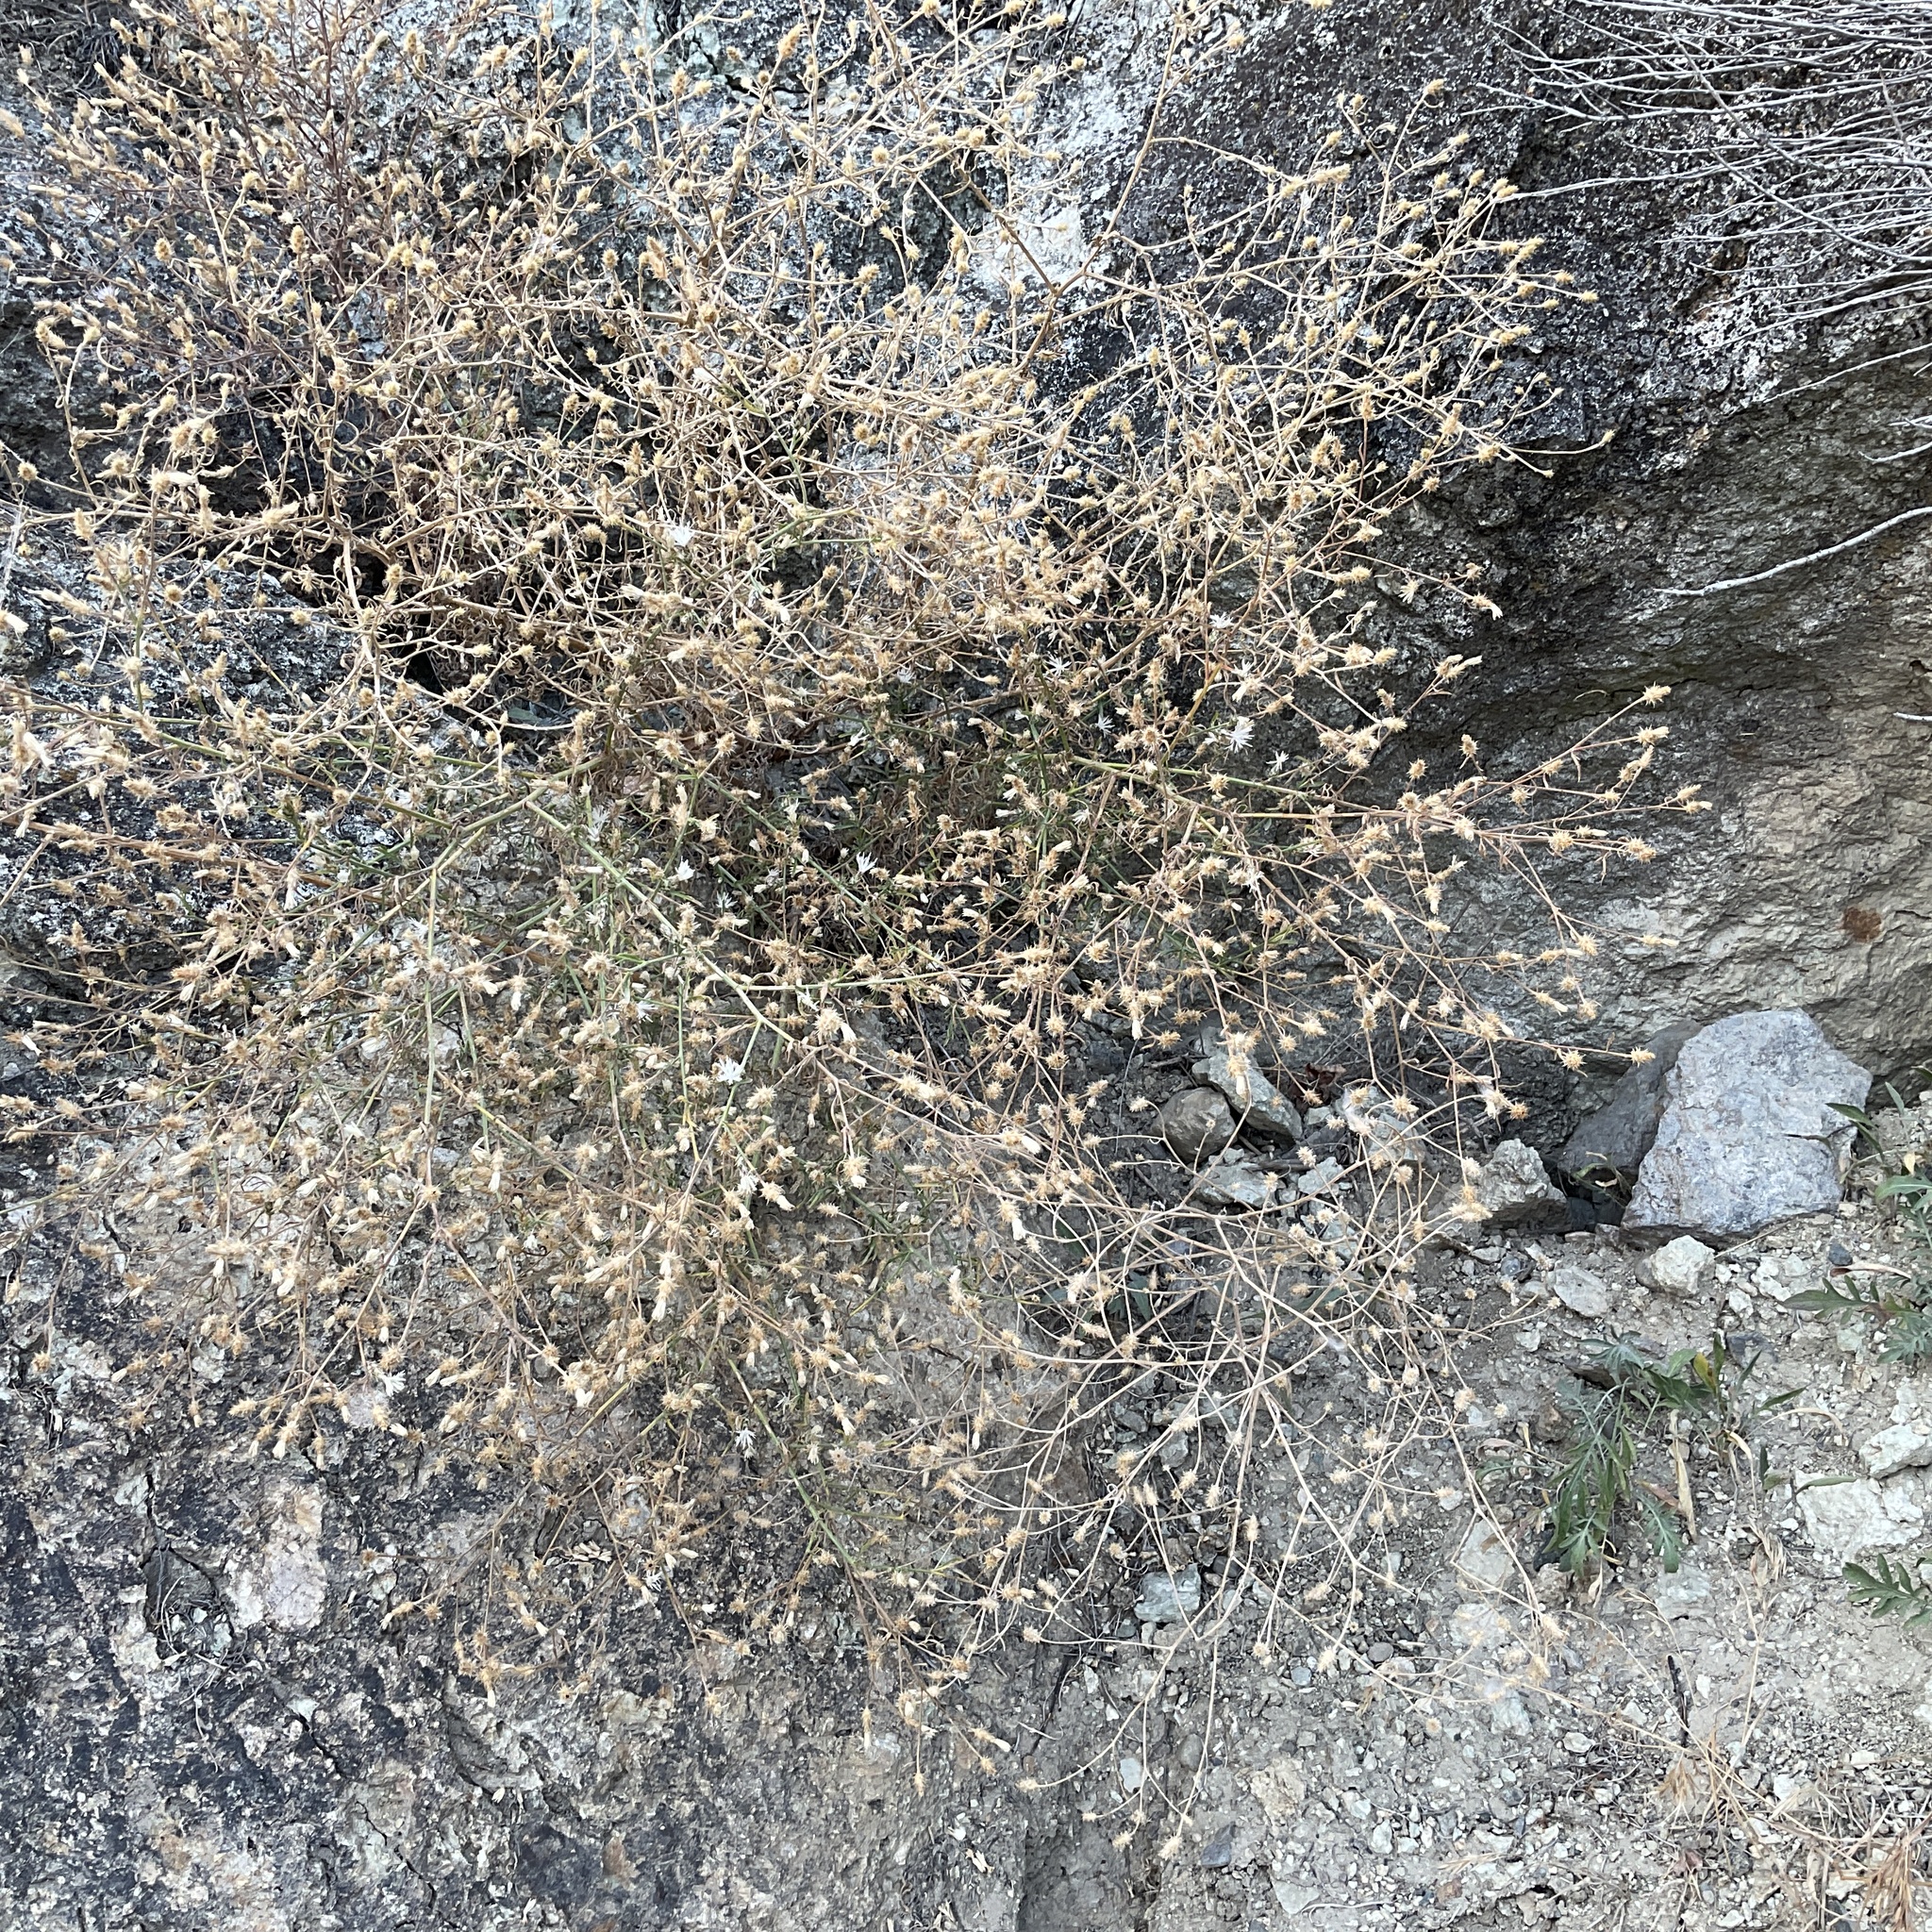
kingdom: Plantae
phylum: Tracheophyta
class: Magnoliopsida
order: Asterales
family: Asteraceae
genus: Centaurea
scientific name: Centaurea diffusa
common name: Diffuse knapweed
